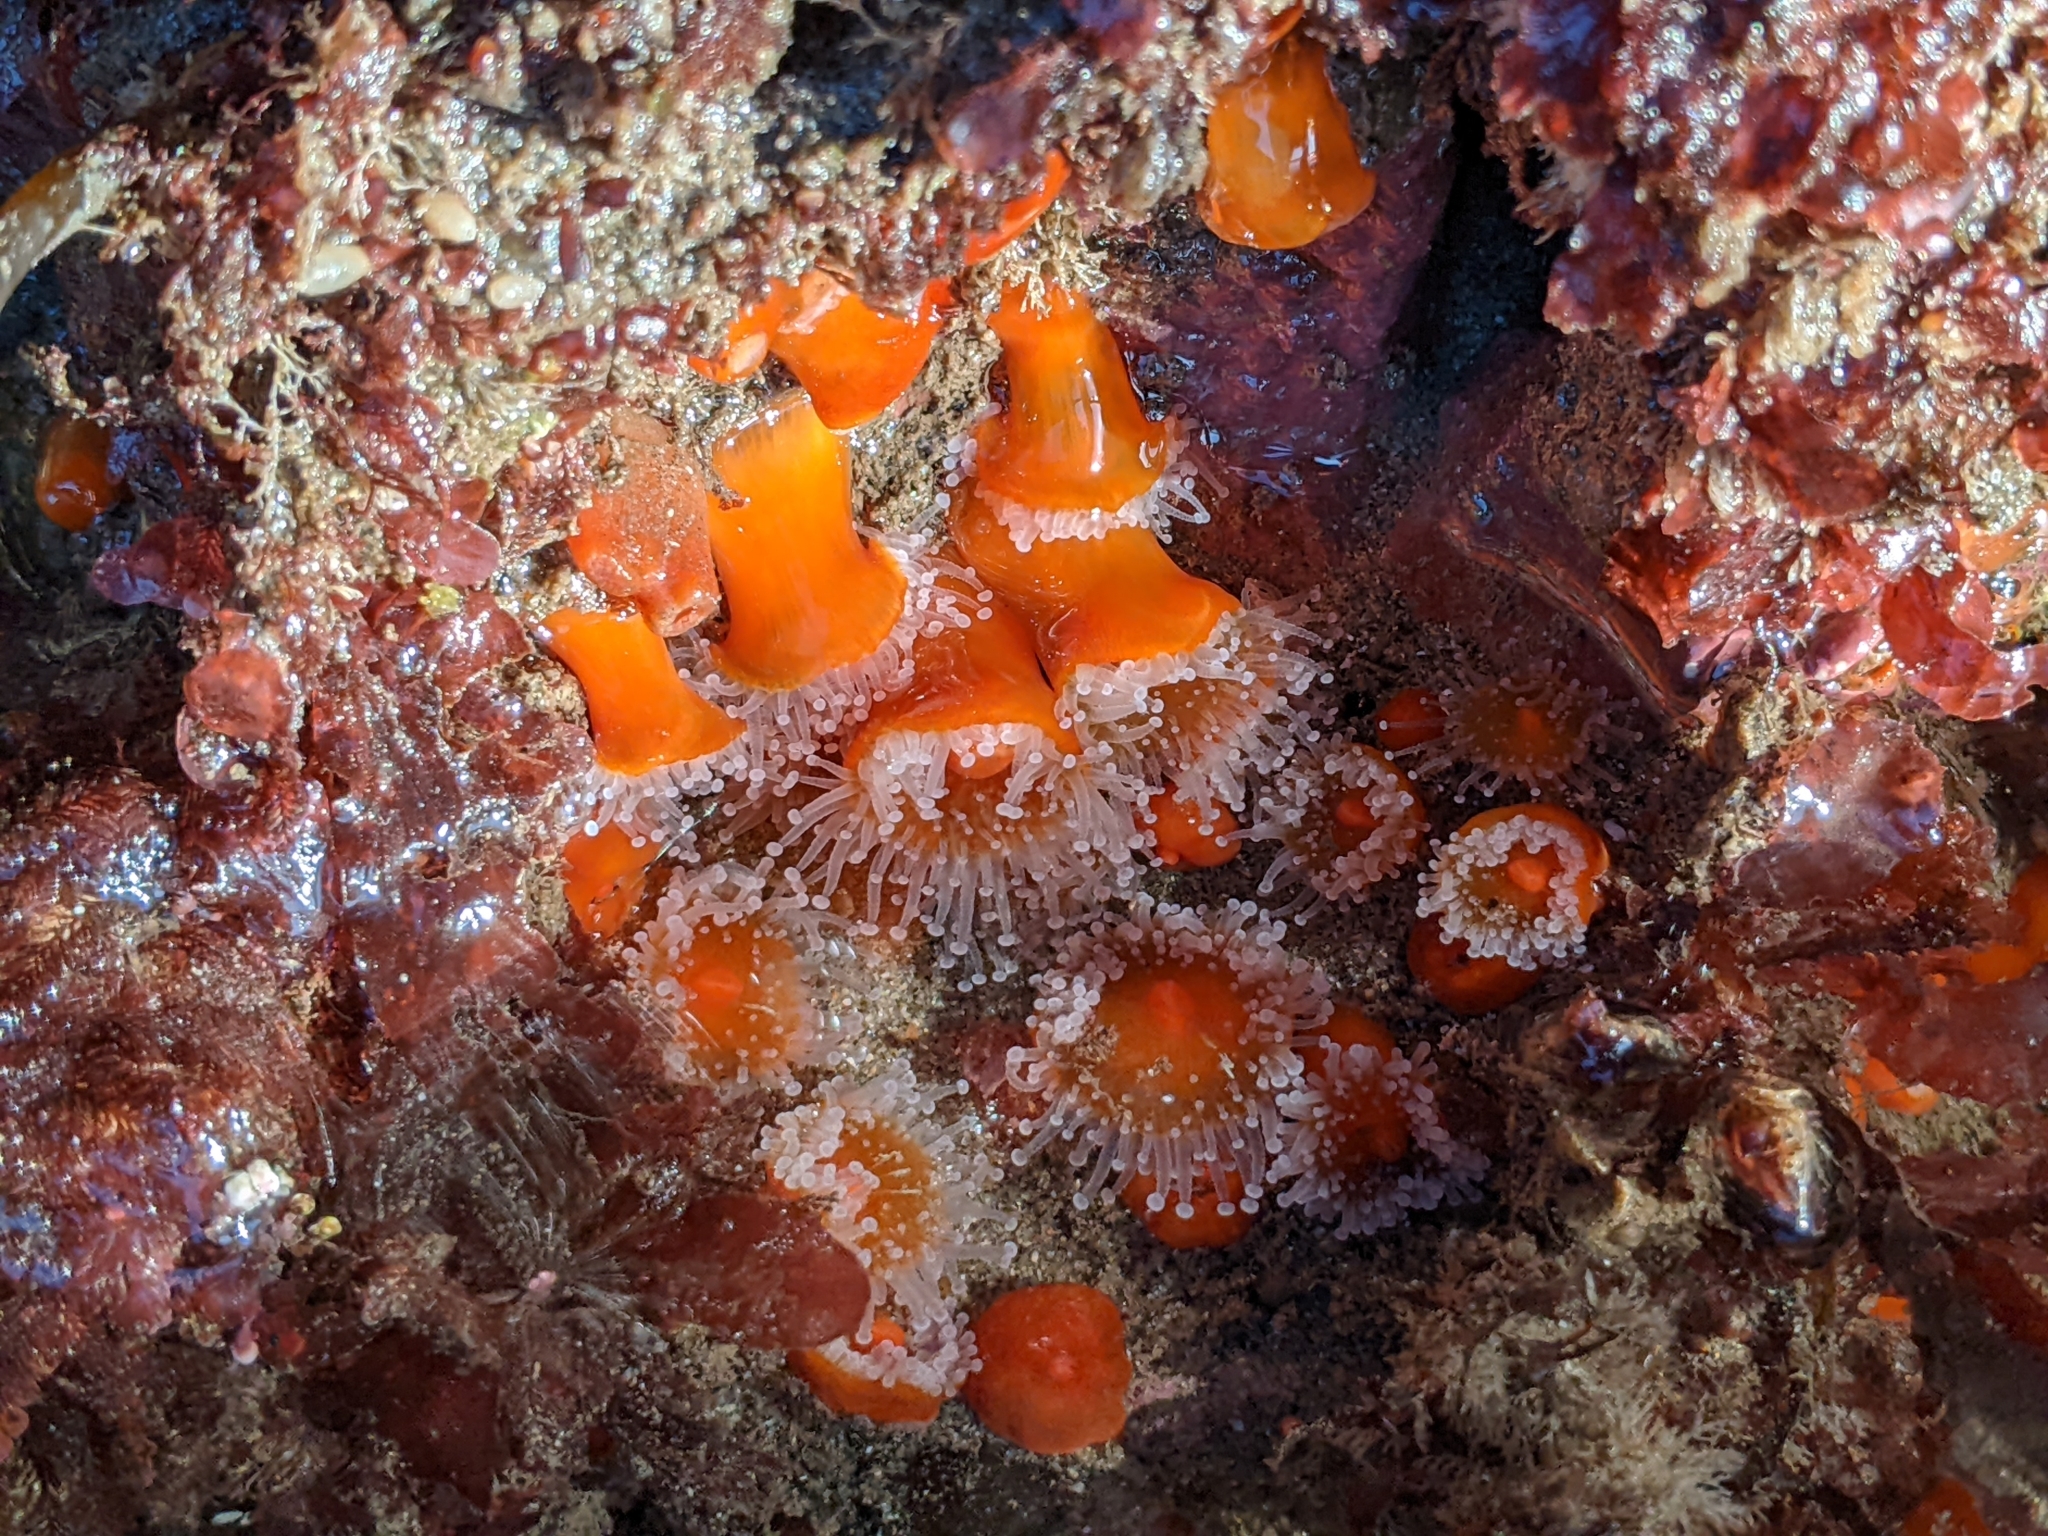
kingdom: Animalia
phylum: Cnidaria
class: Anthozoa
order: Corallimorpharia
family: Corallimorphidae
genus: Corynactis
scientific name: Corynactis californica
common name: Strawberry corallimorpharian
